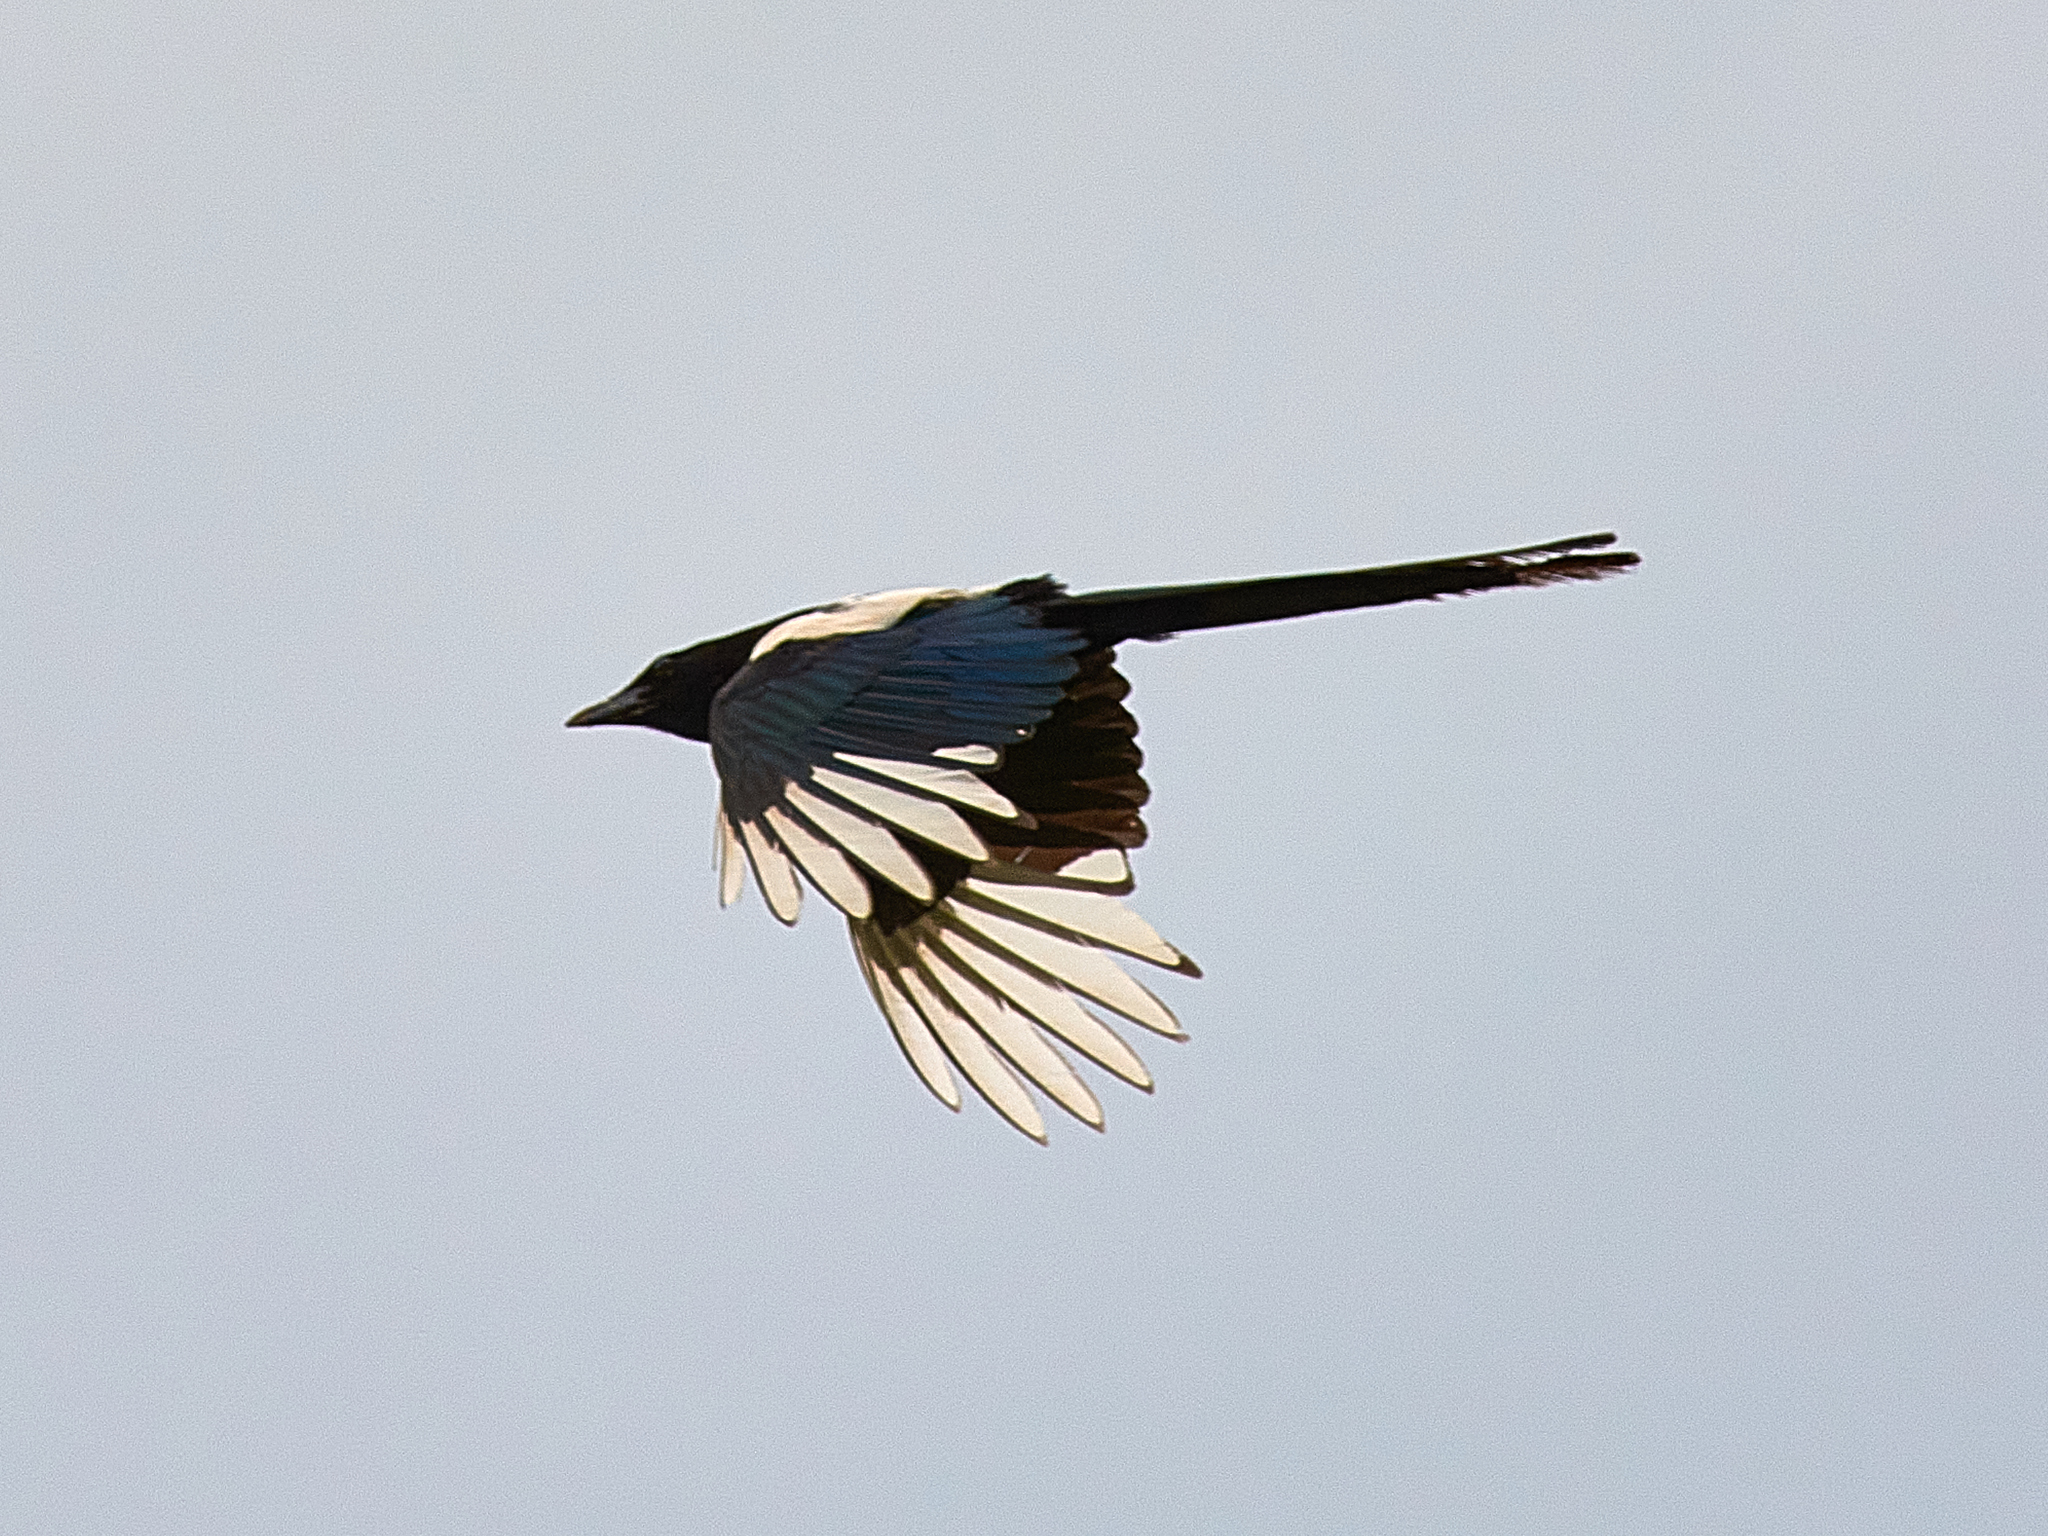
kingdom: Animalia
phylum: Chordata
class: Aves
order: Passeriformes
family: Corvidae
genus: Pica
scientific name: Pica pica
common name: Eurasian magpie
